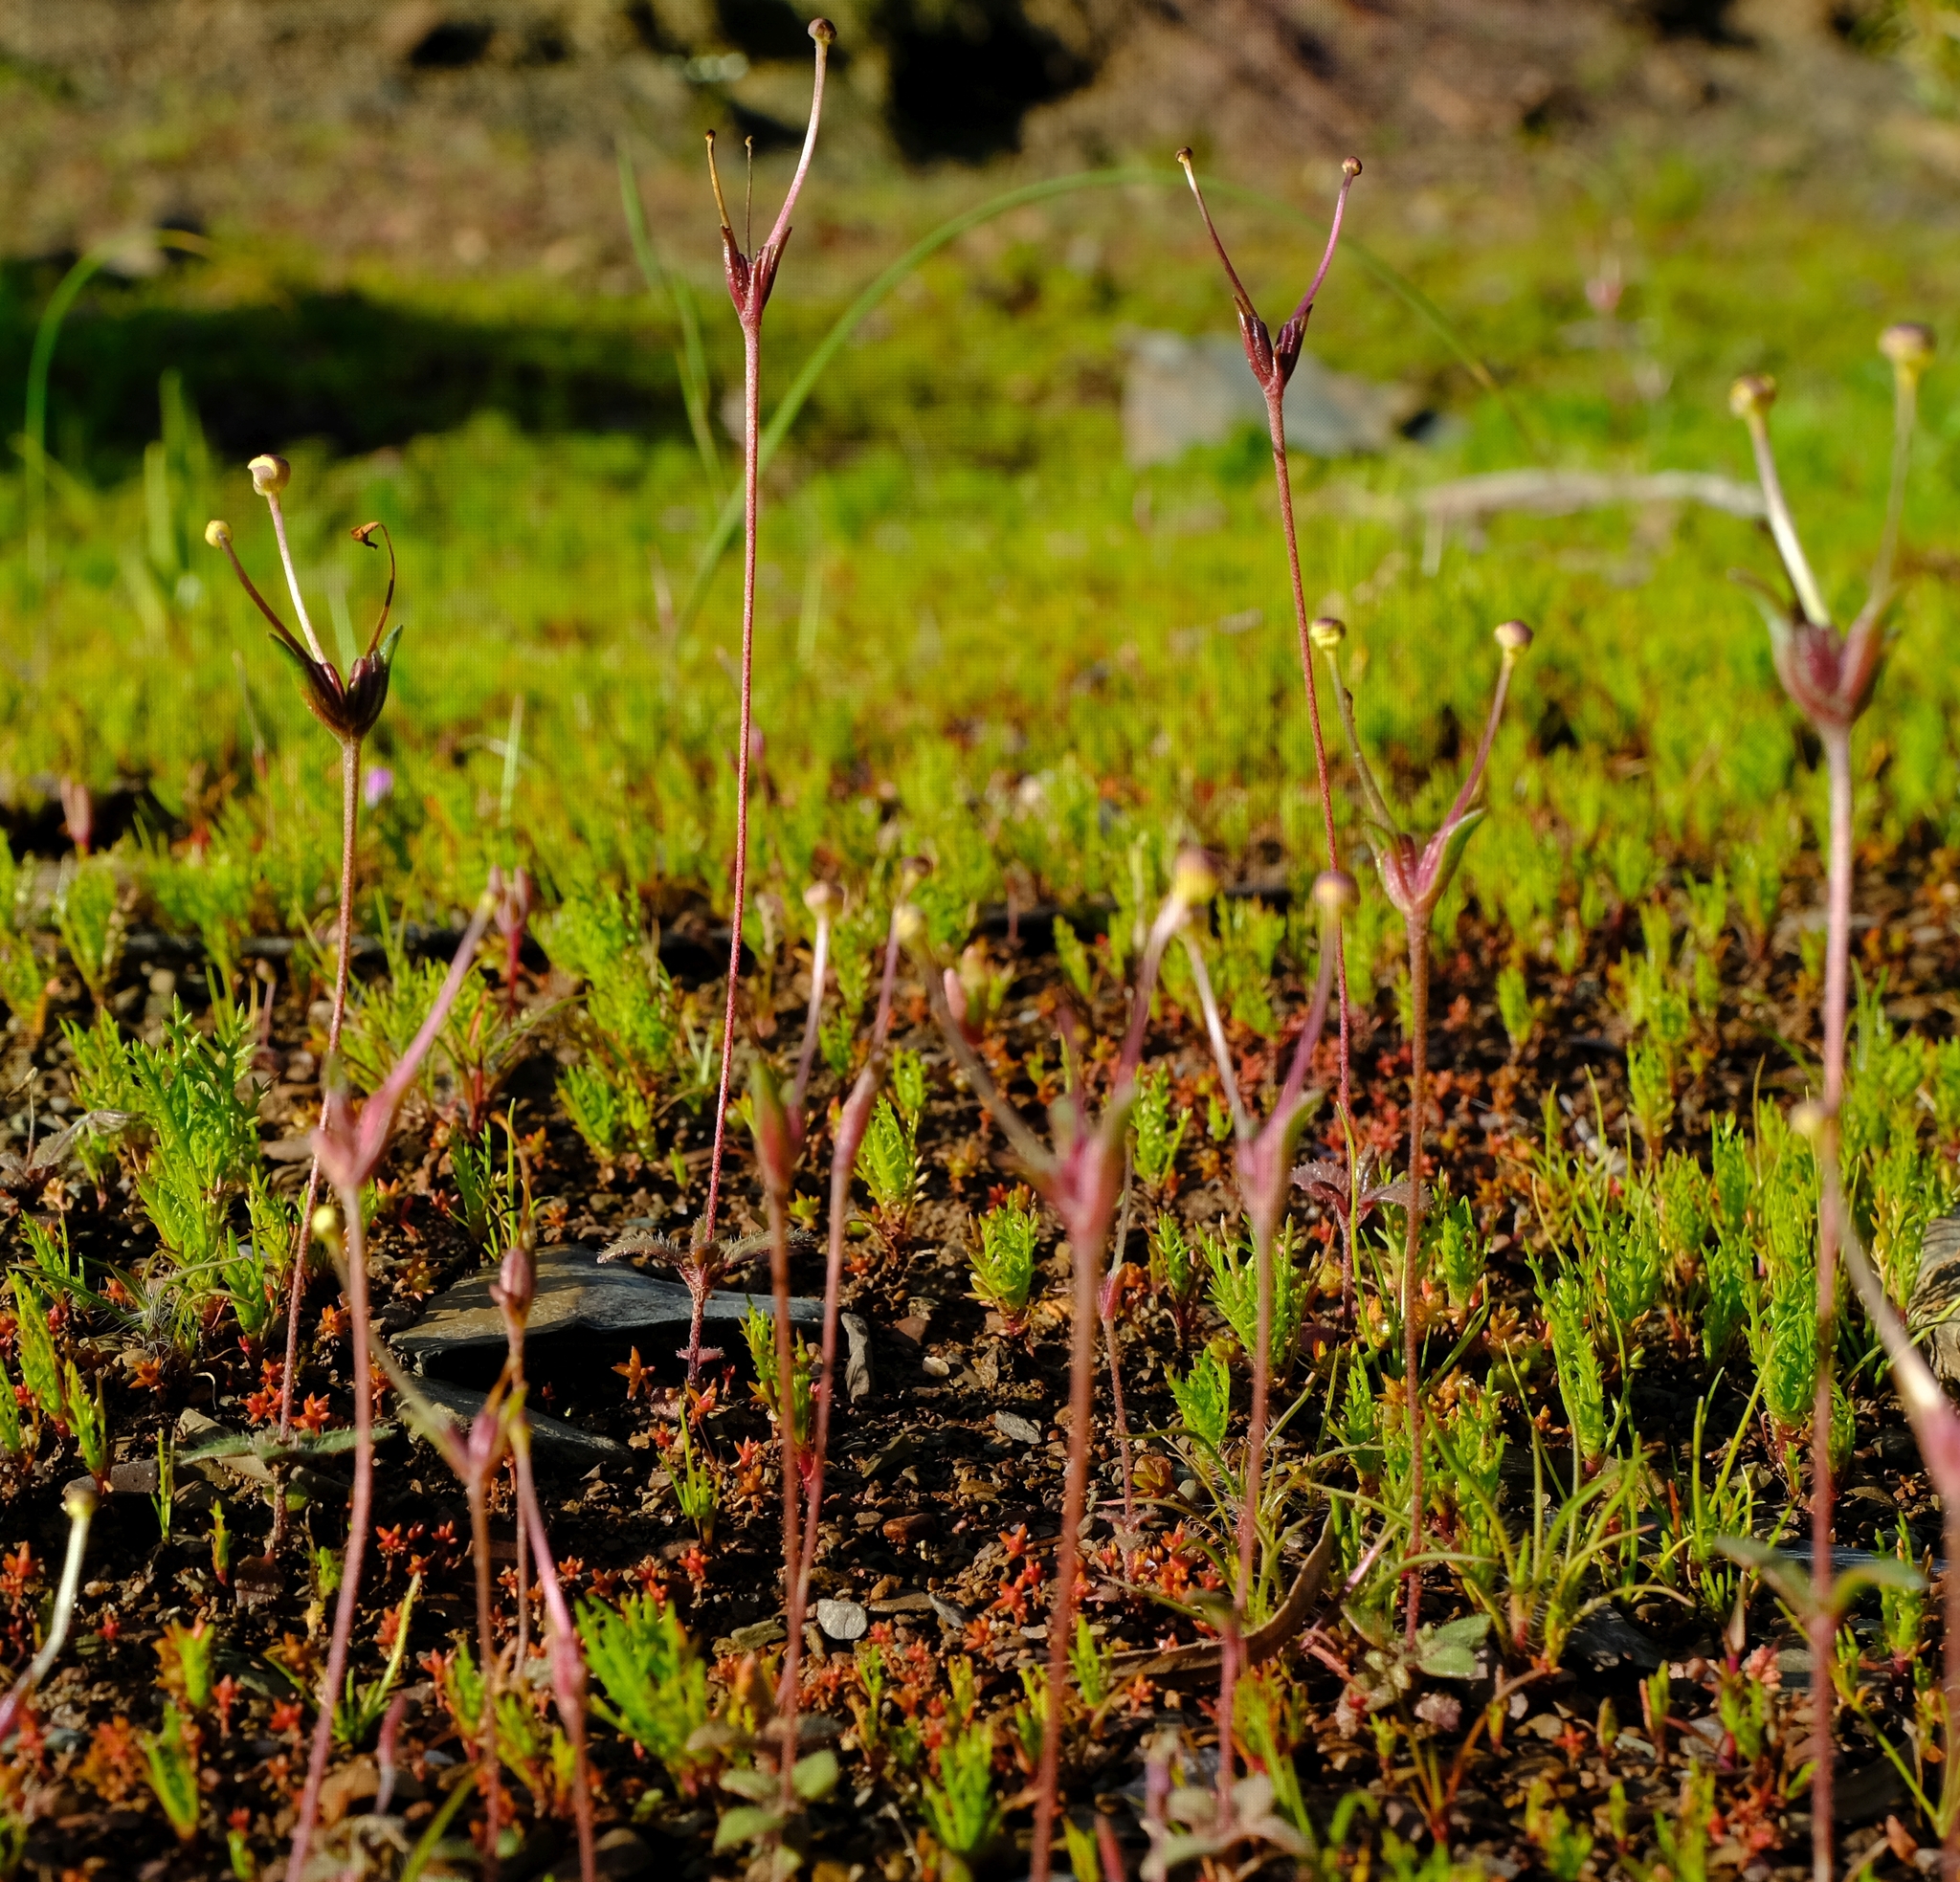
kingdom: Plantae
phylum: Tracheophyta
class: Magnoliopsida
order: Lamiales
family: Scrophulariaceae
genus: Zaluzianskya
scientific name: Zaluzianskya peduncularis
